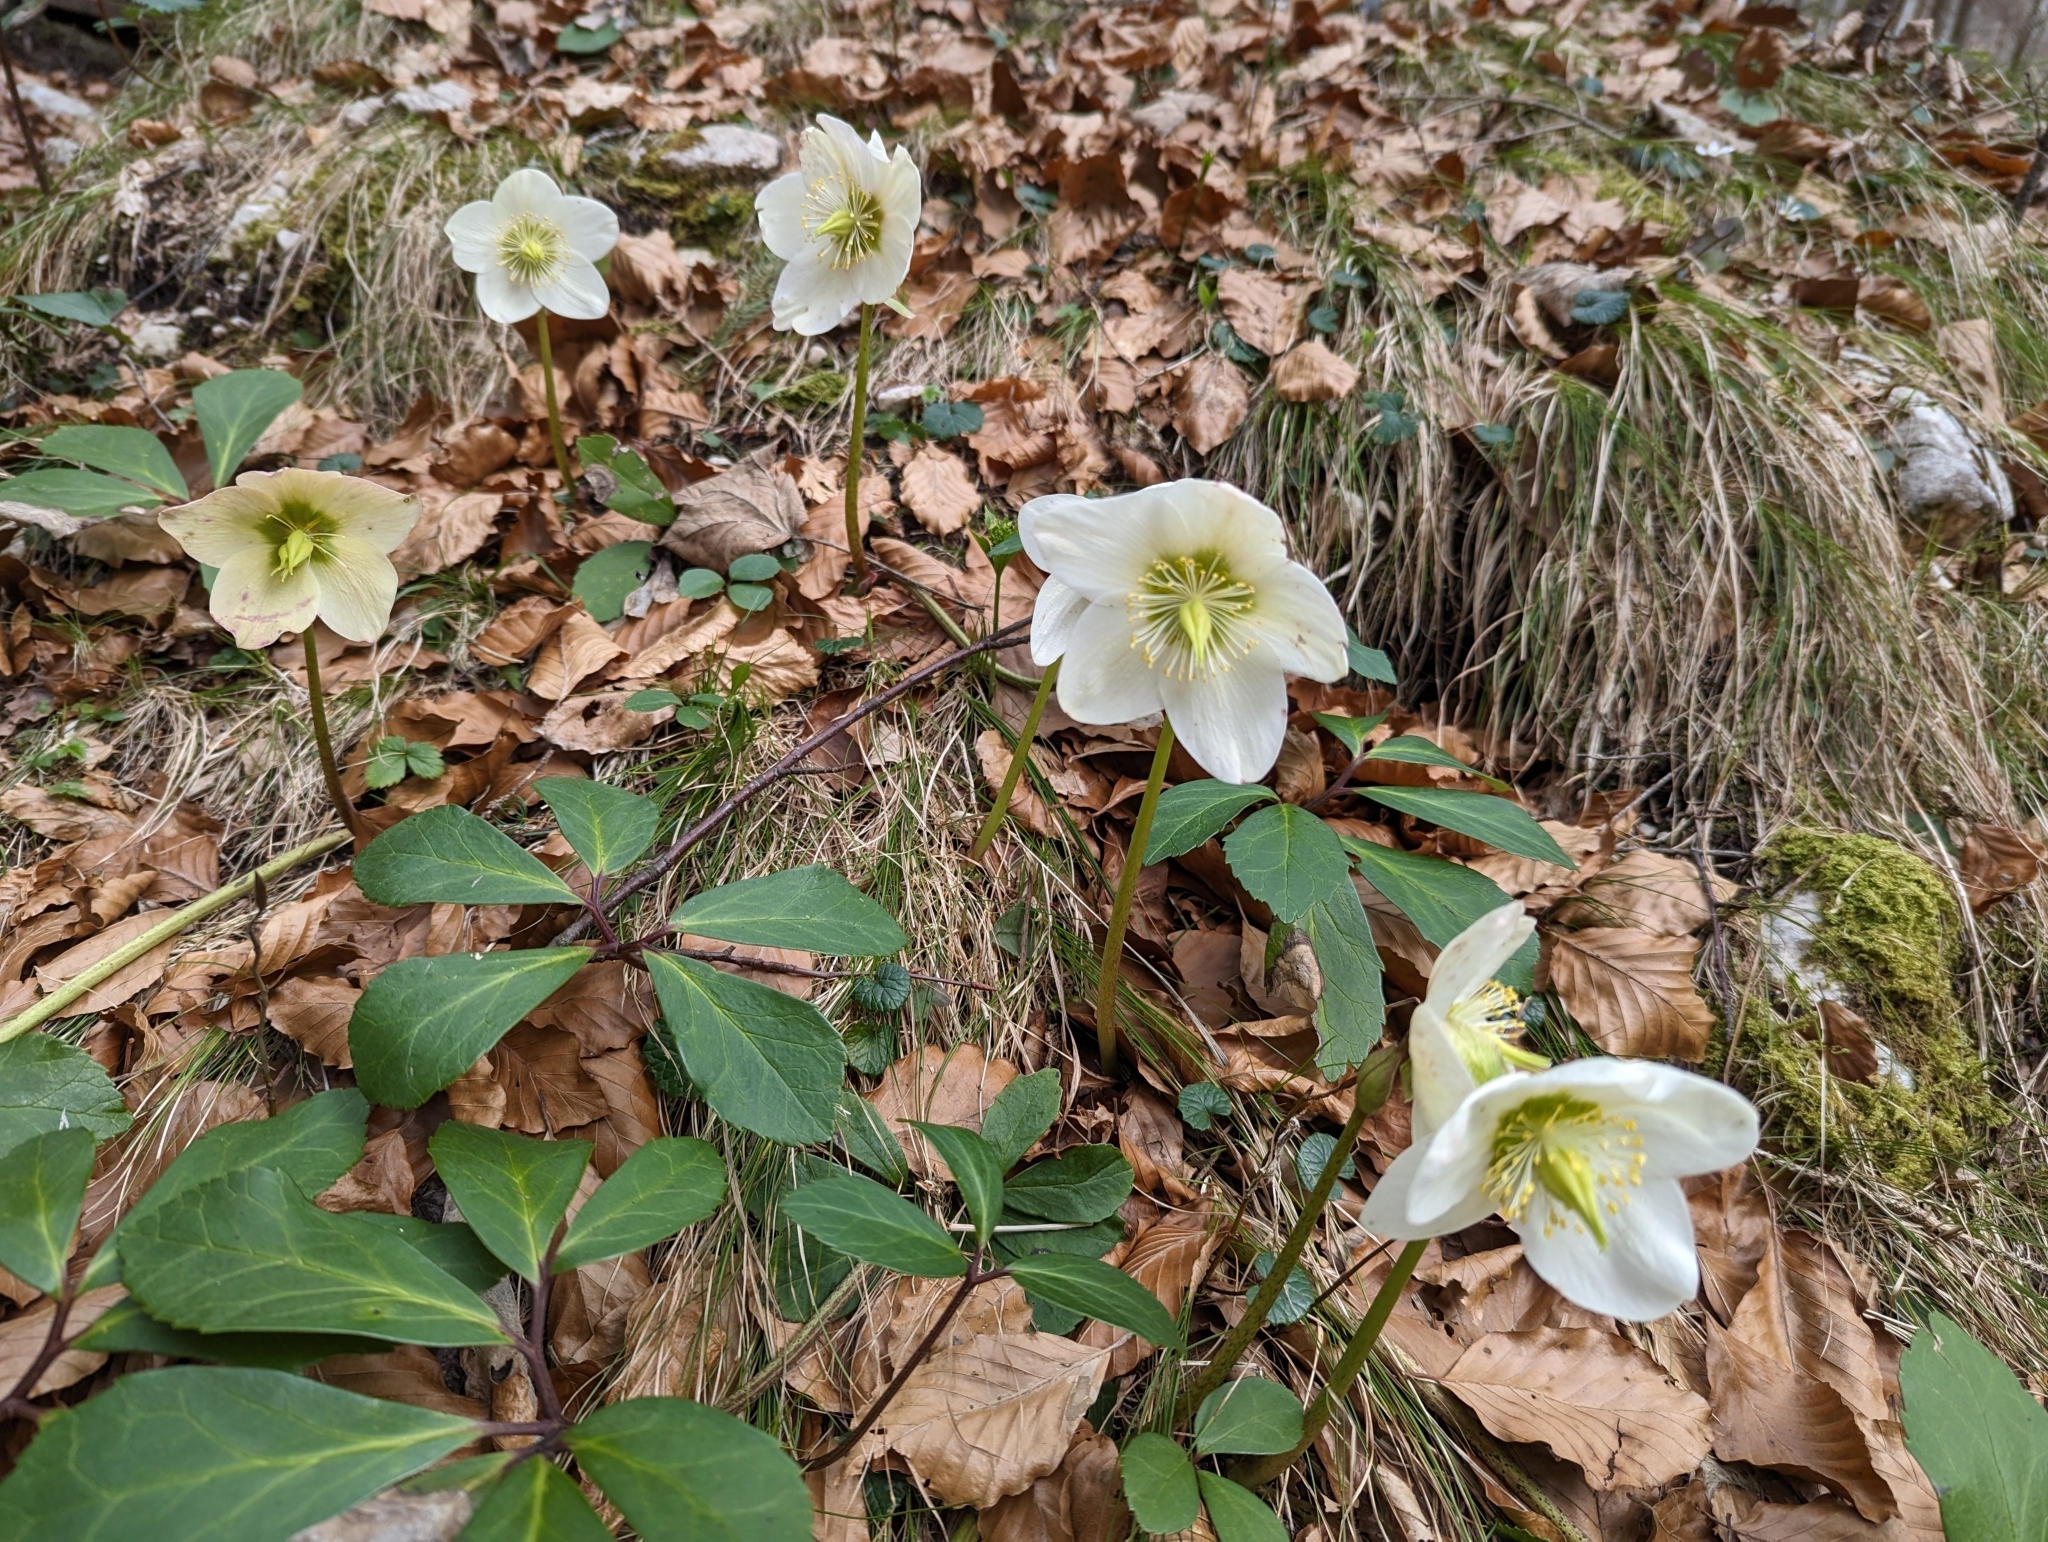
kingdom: Plantae
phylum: Tracheophyta
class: Magnoliopsida
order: Ranunculales
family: Ranunculaceae
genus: Helleborus
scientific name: Helleborus niger
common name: Black hellebore
